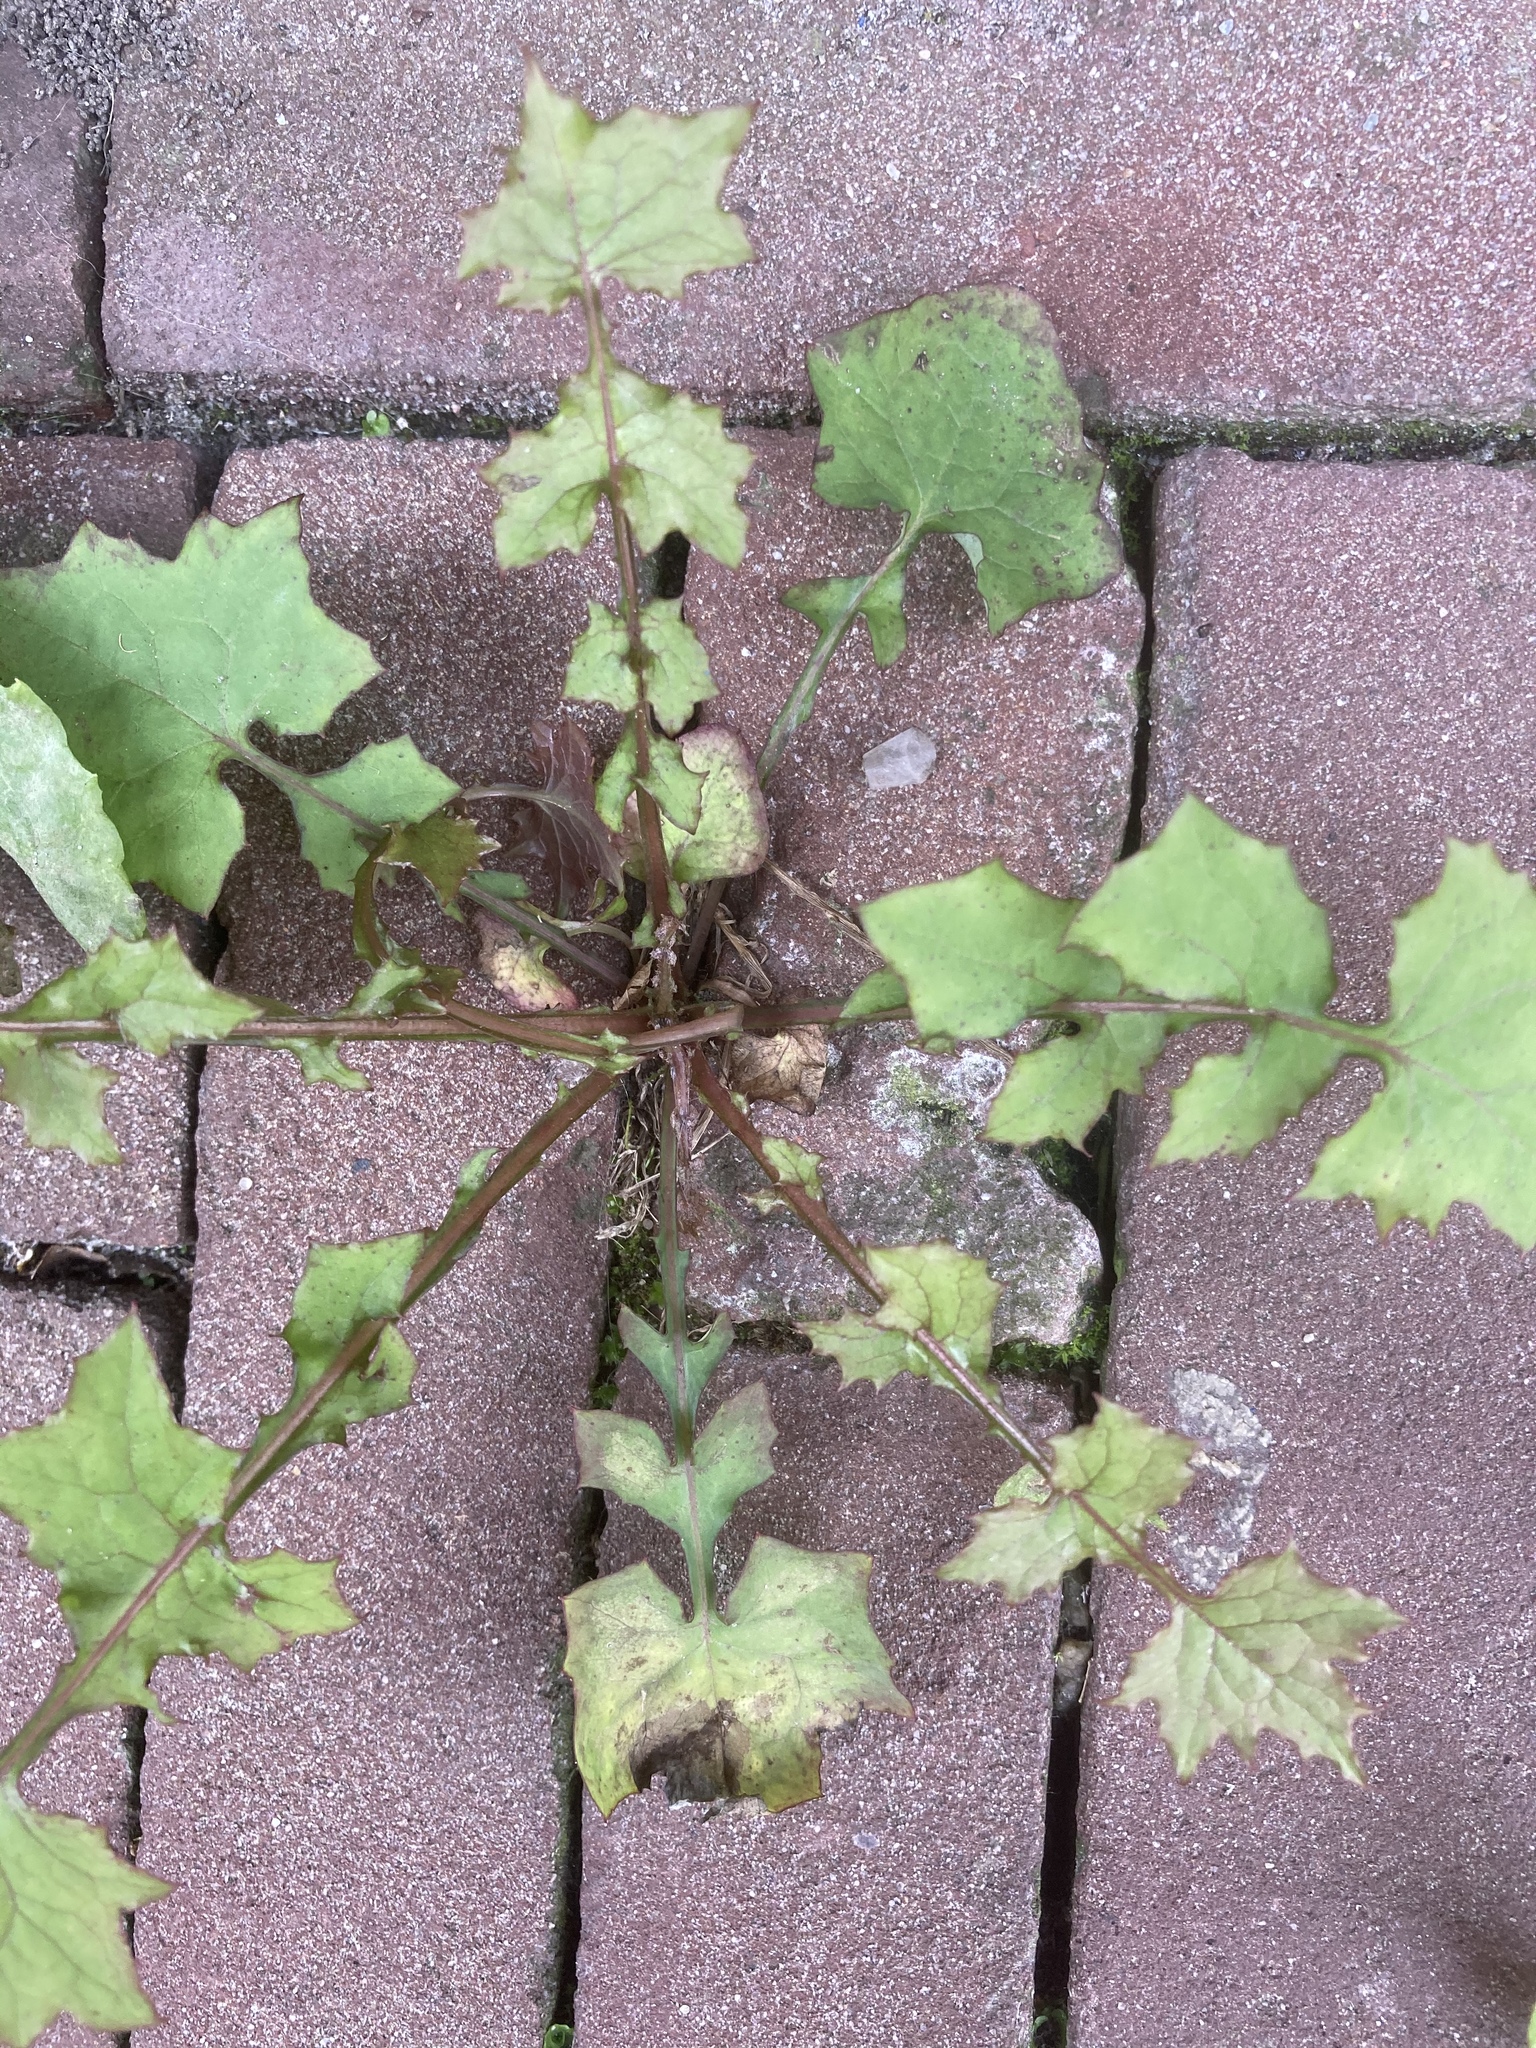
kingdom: Plantae
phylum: Tracheophyta
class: Magnoliopsida
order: Asterales
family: Asteraceae
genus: Mycelis
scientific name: Mycelis muralis
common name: Wall lettuce
